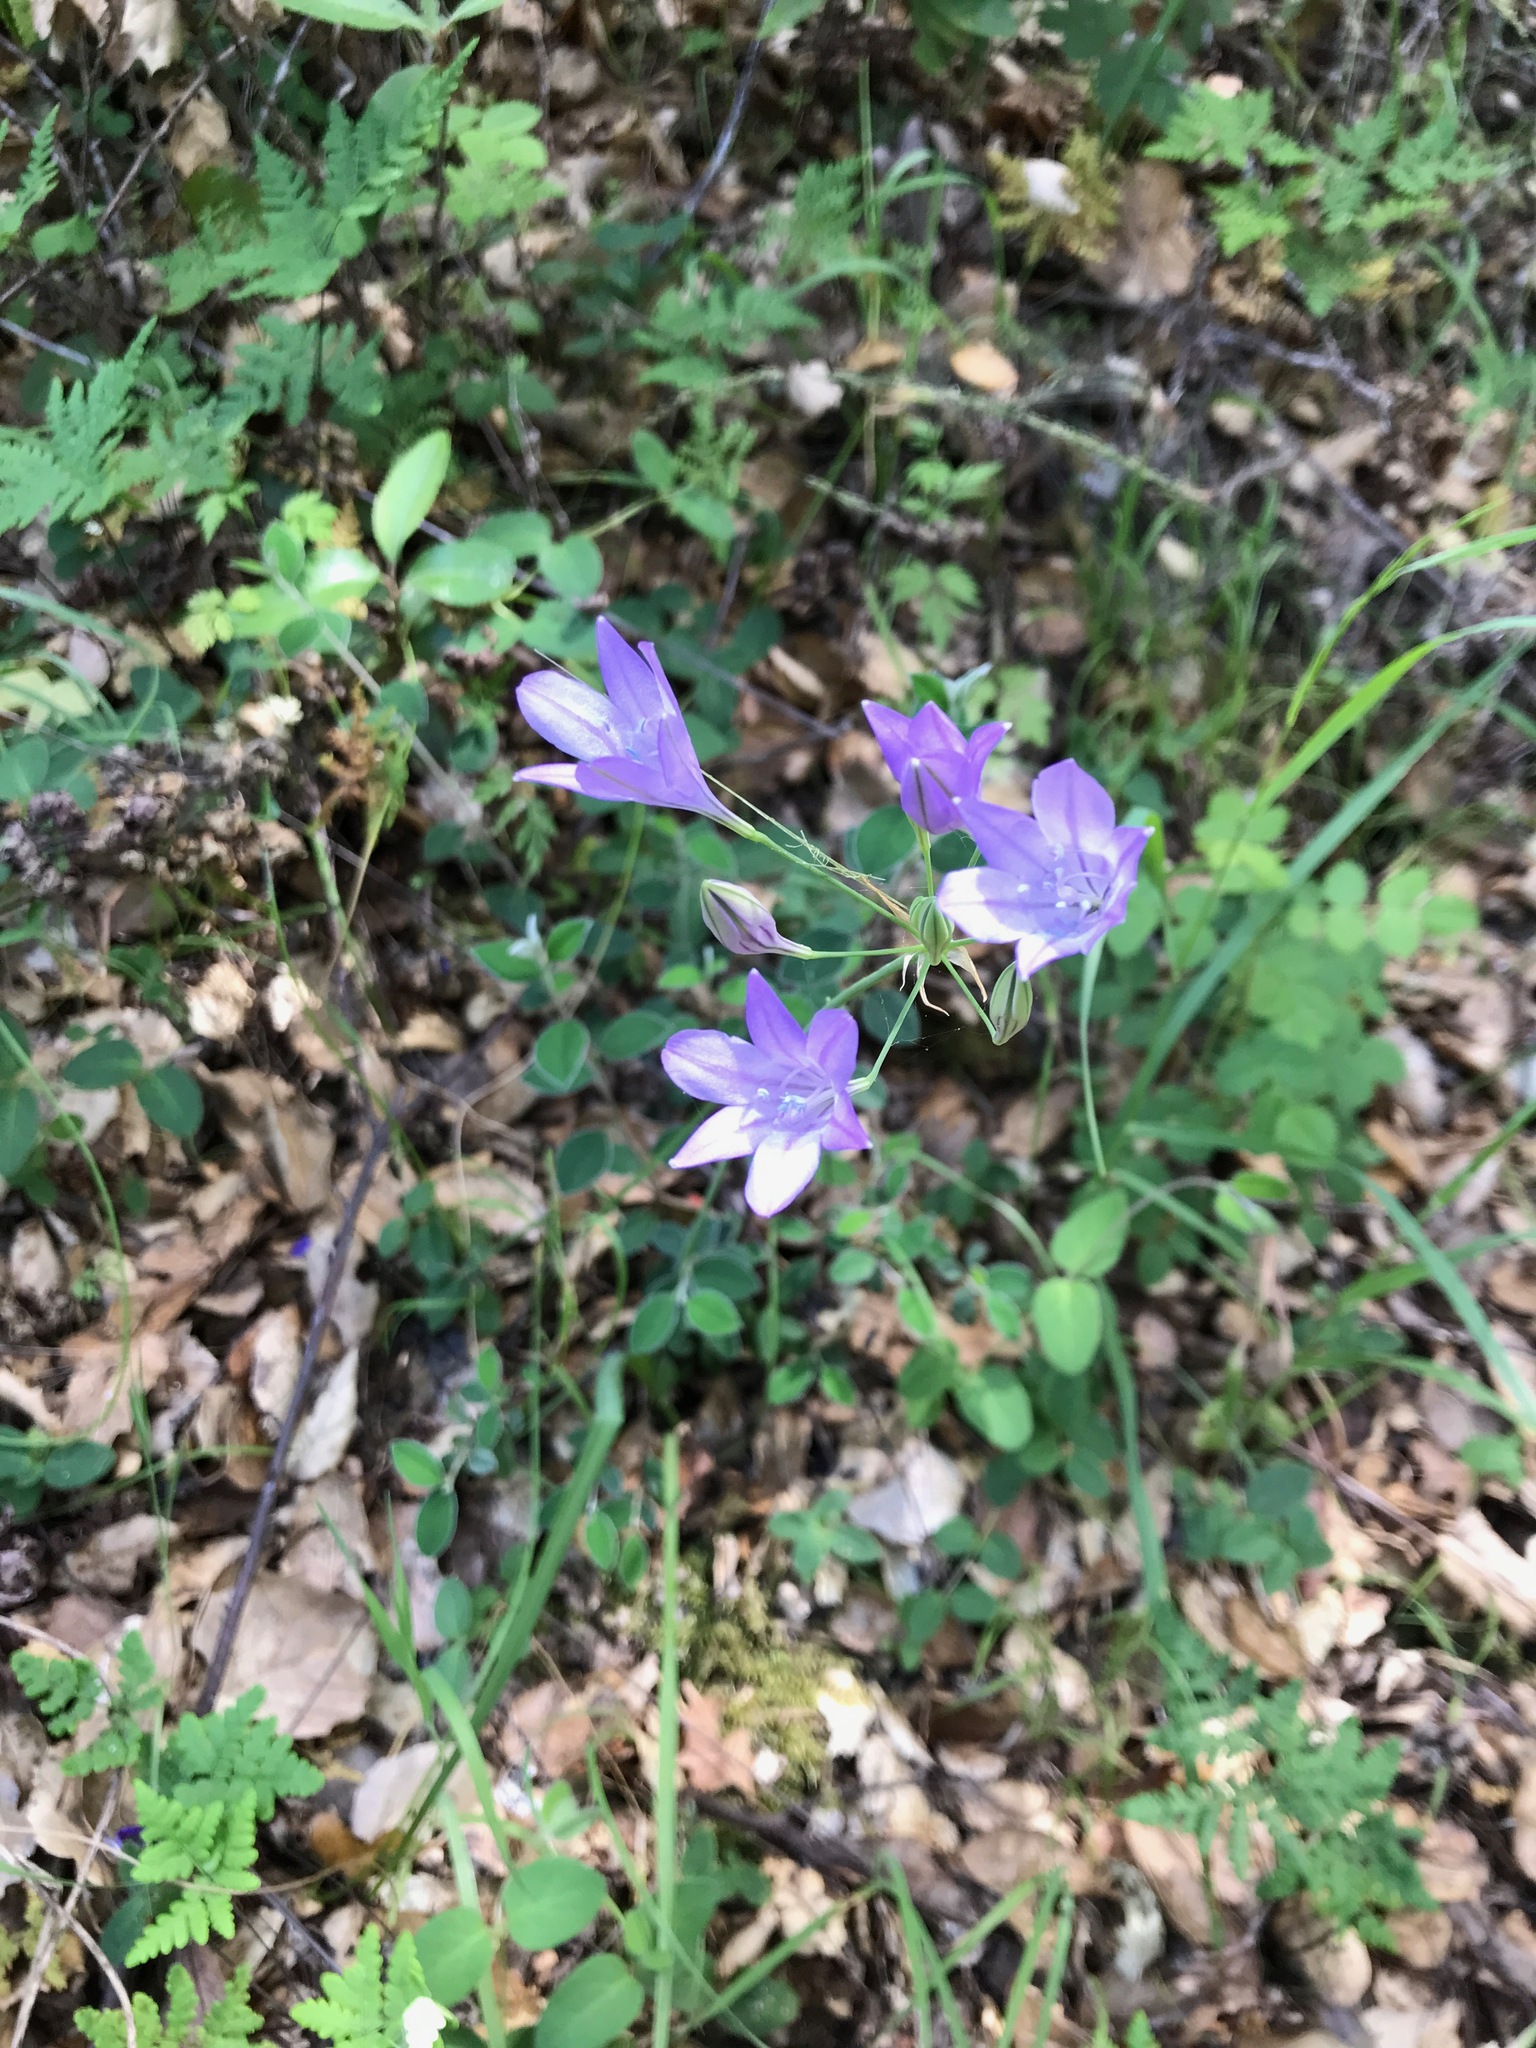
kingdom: Plantae
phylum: Tracheophyta
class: Liliopsida
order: Asparagales
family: Asparagaceae
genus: Triteleia
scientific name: Triteleia laxa
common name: Triplet-lily
